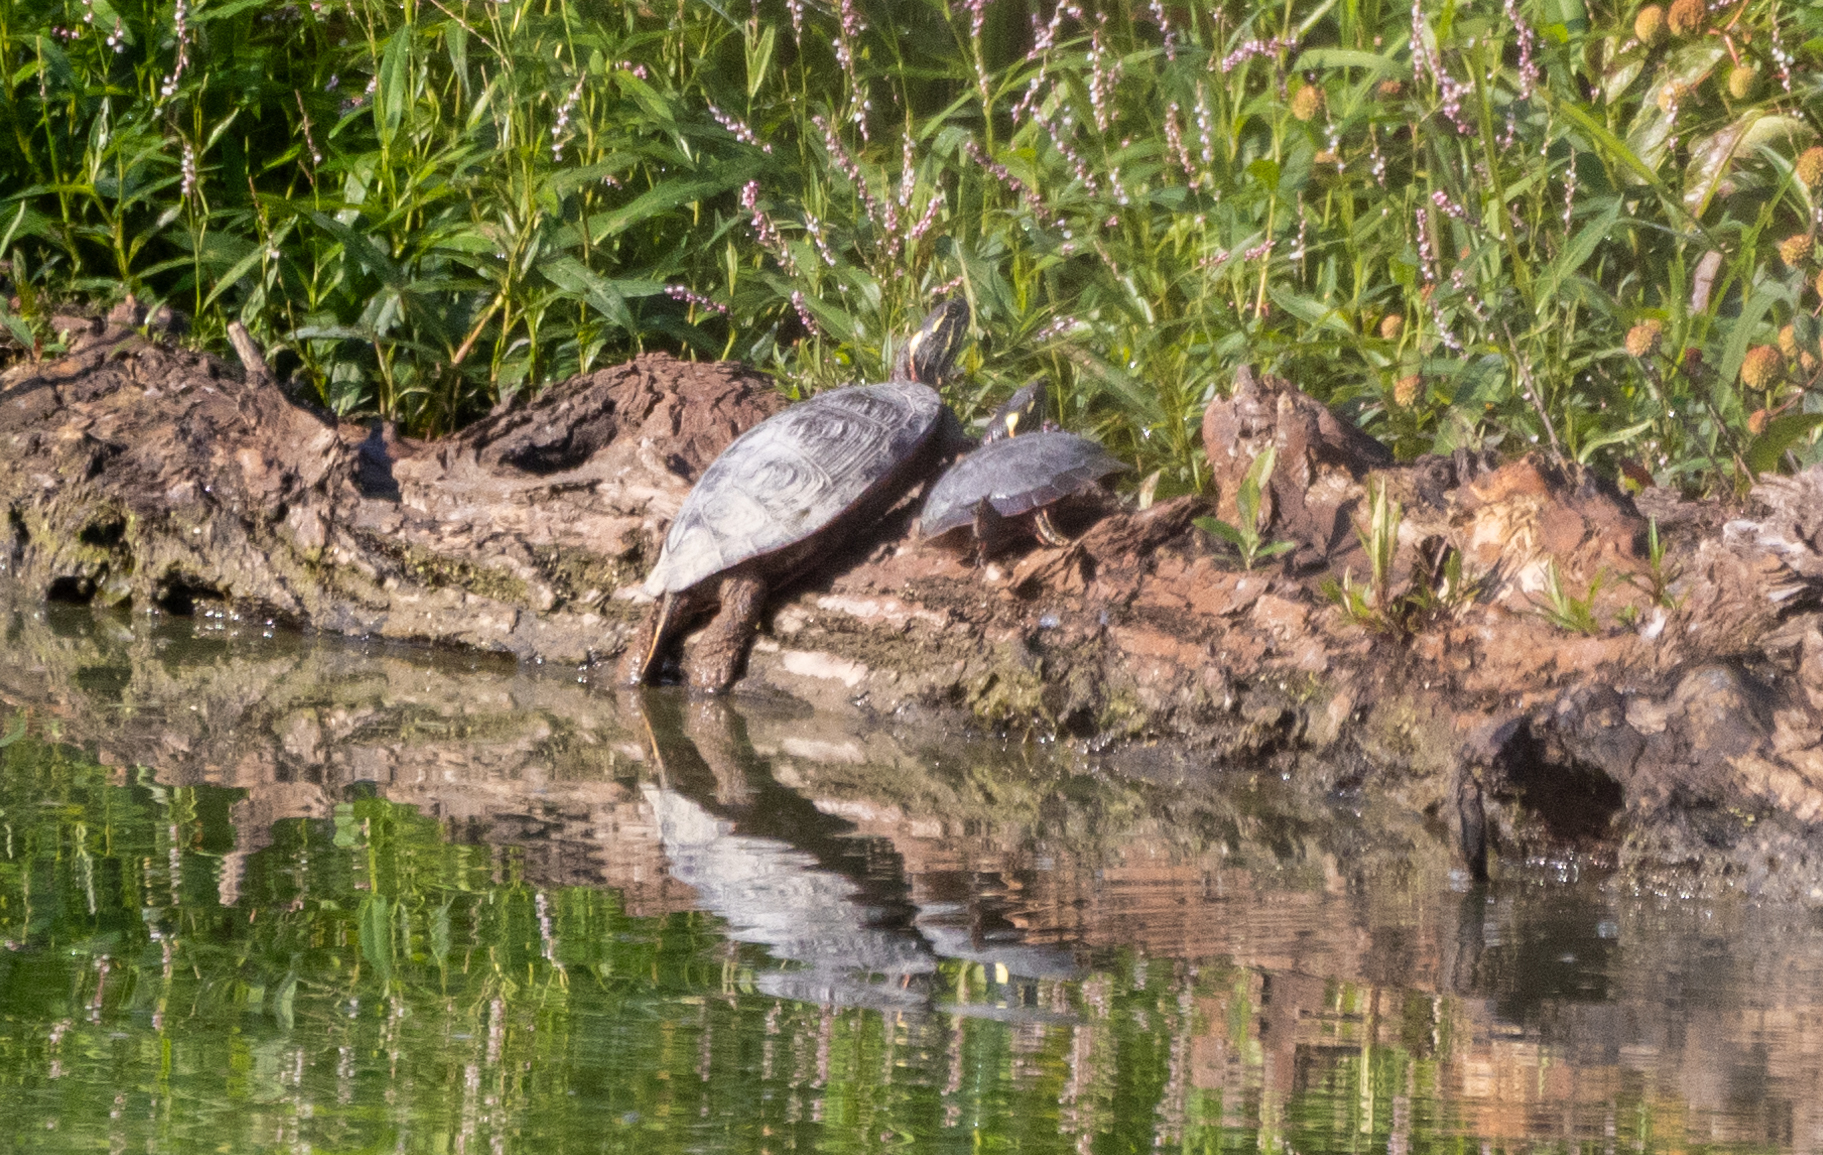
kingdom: Animalia
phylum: Chordata
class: Testudines
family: Emydidae
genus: Chrysemys
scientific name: Chrysemys picta
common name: Painted turtle
